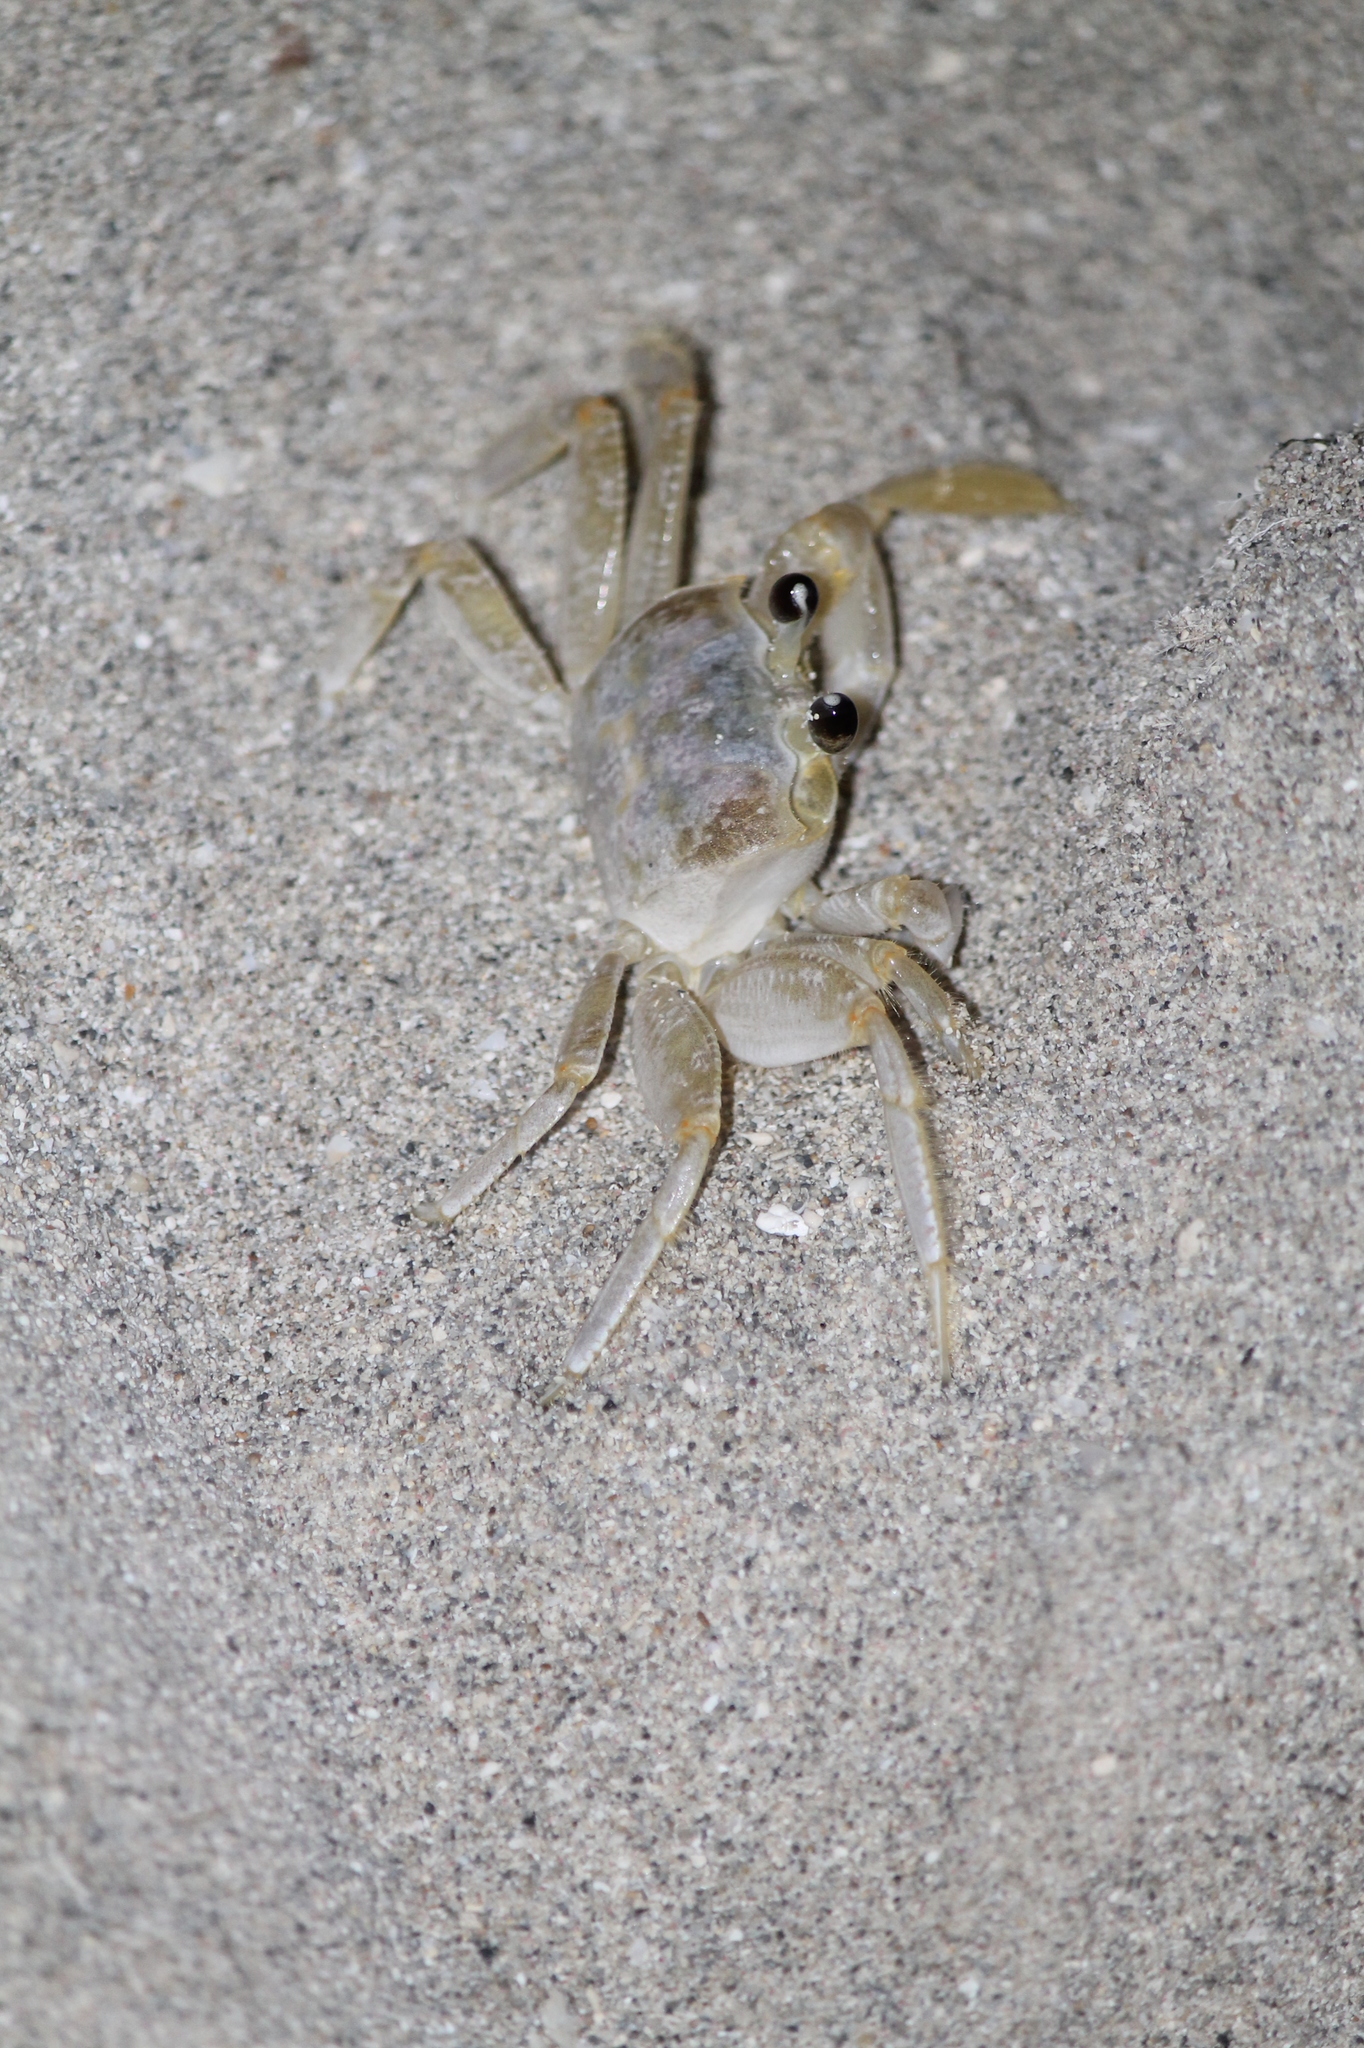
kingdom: Animalia
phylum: Arthropoda
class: Malacostraca
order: Decapoda
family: Ocypodidae
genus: Ocypode
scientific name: Ocypode quadrata
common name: Ghost crab
